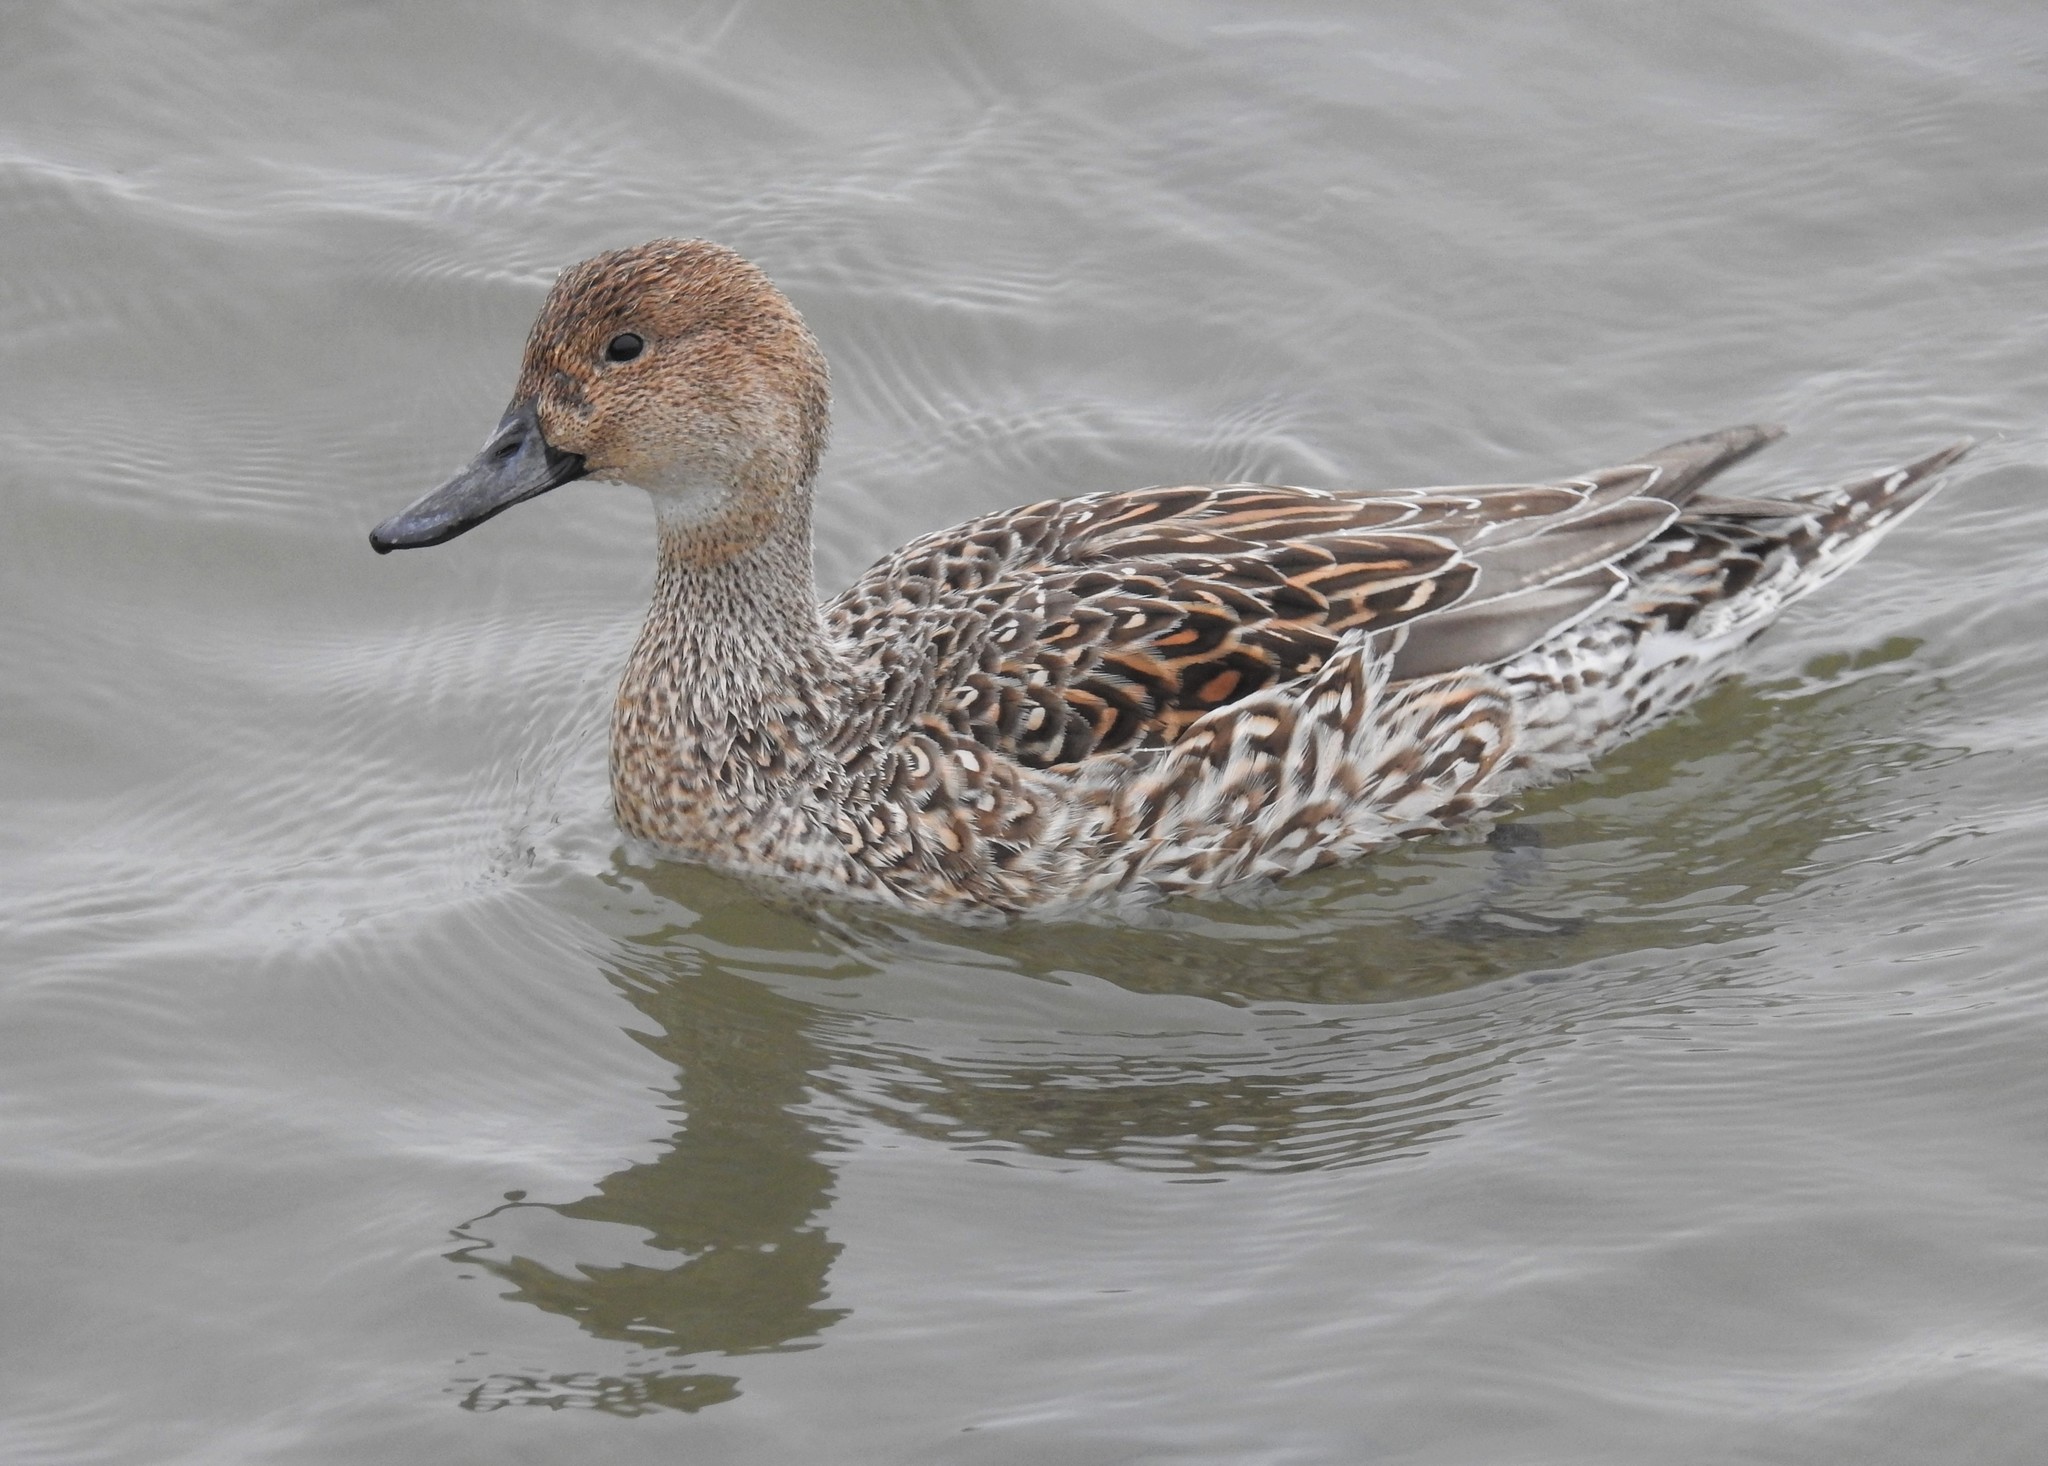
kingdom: Animalia
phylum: Chordata
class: Aves
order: Anseriformes
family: Anatidae
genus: Anas
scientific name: Anas acuta
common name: Northern pintail
